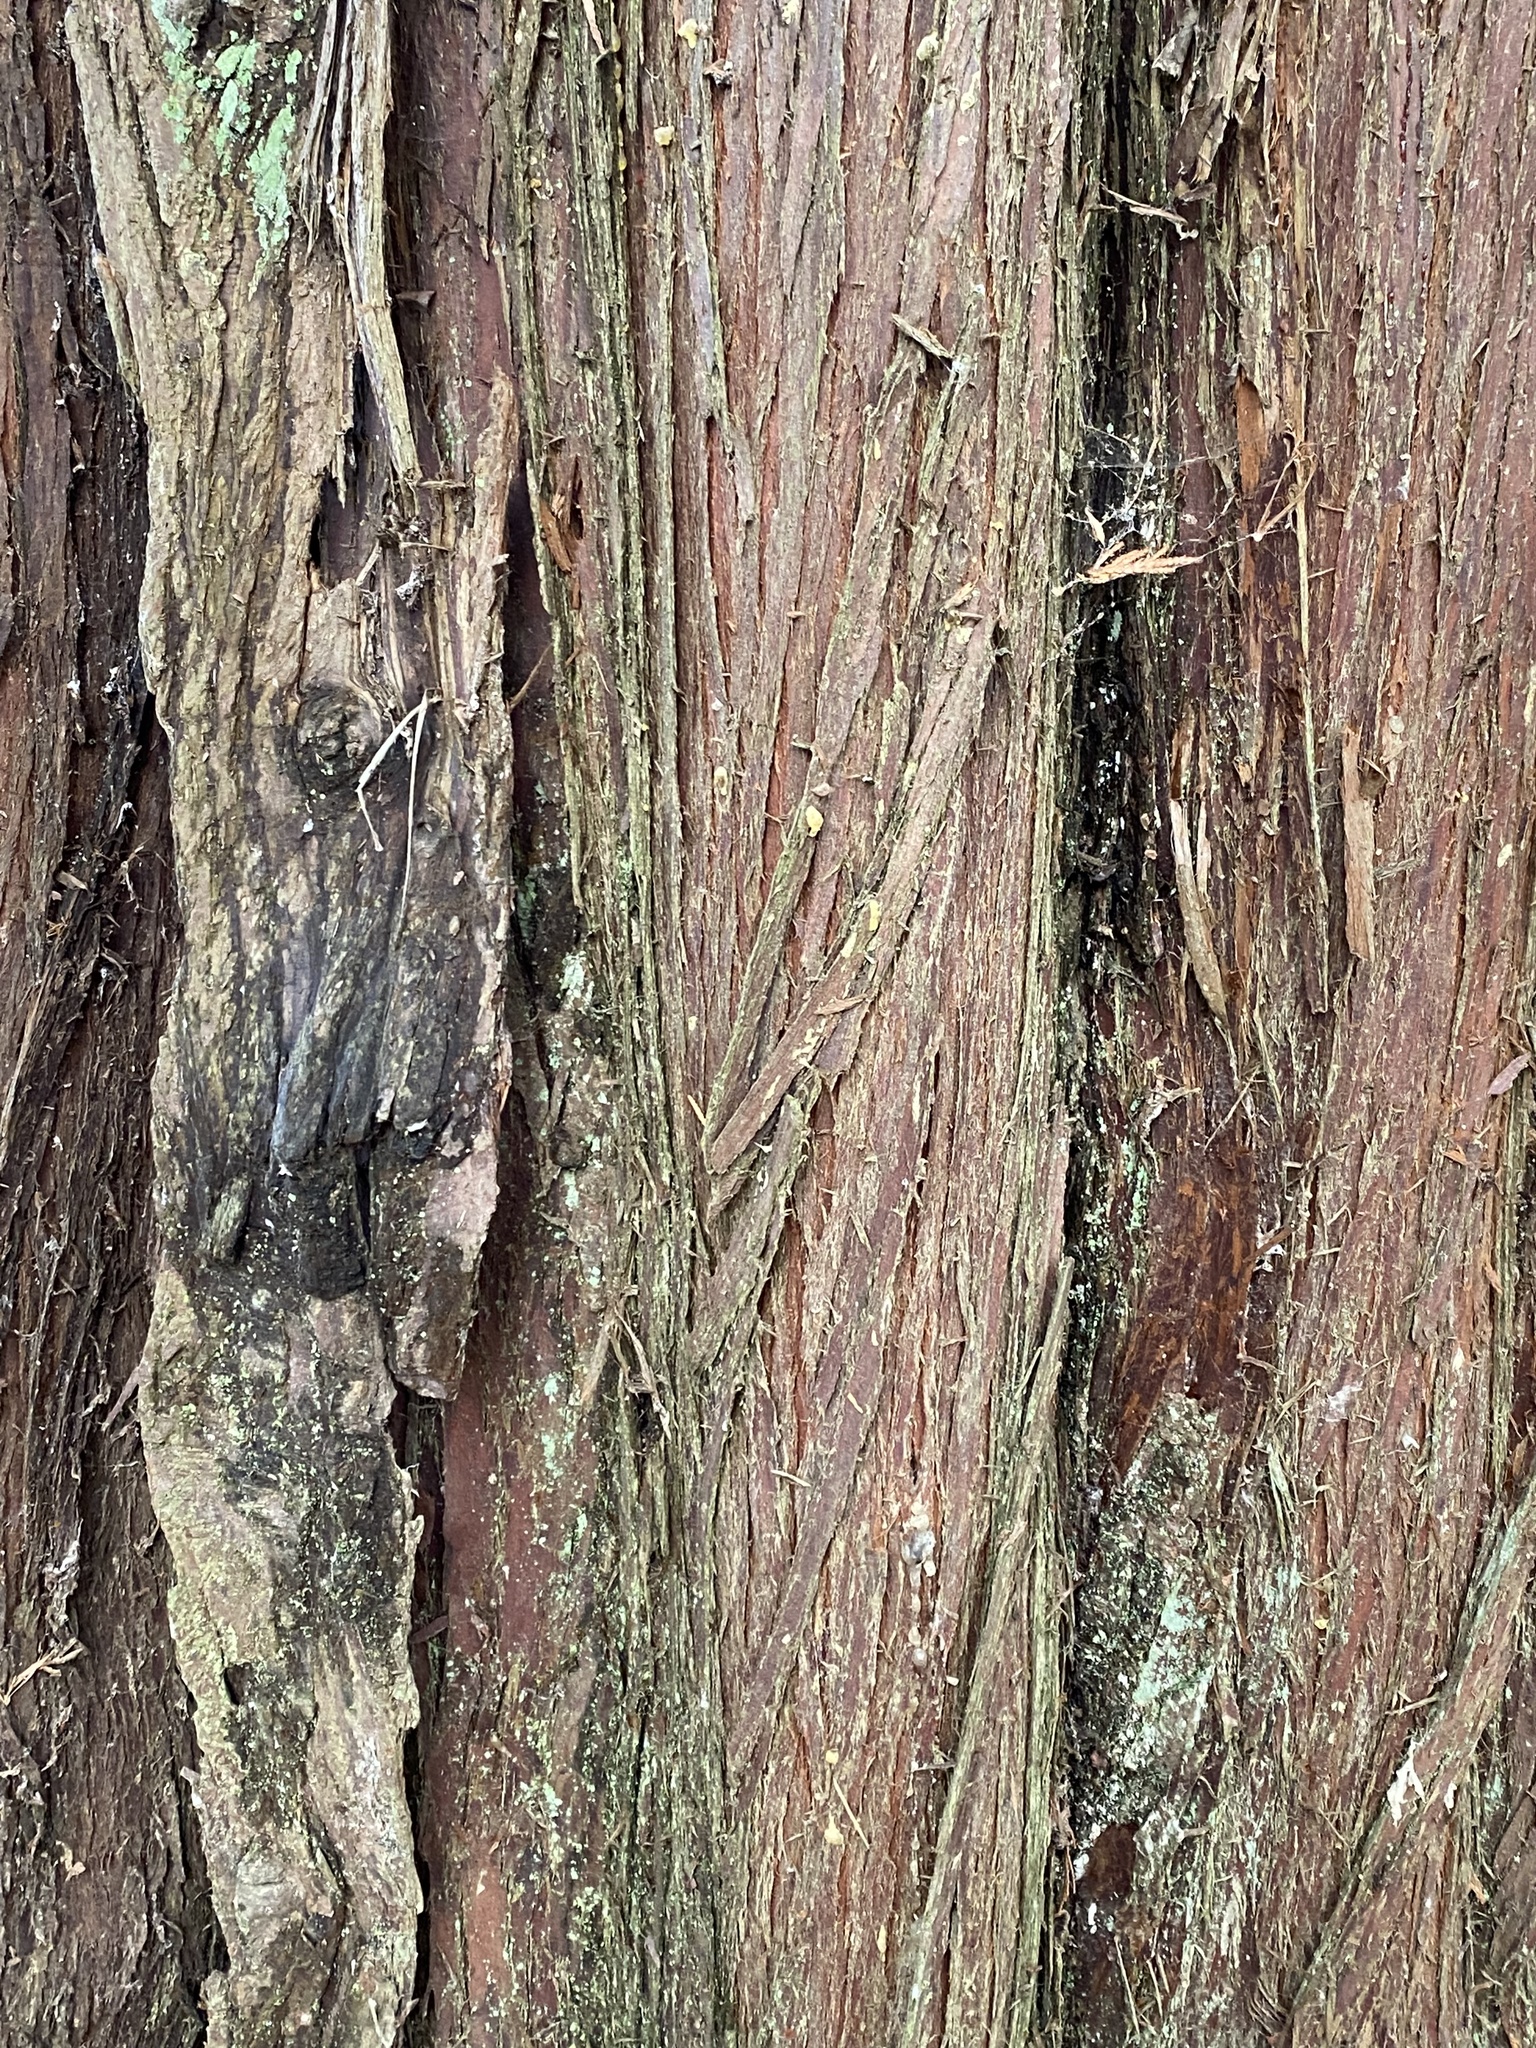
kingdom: Plantae
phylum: Tracheophyta
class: Pinopsida
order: Pinales
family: Cupressaceae
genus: Thuja
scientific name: Thuja plicata
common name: Western red-cedar
